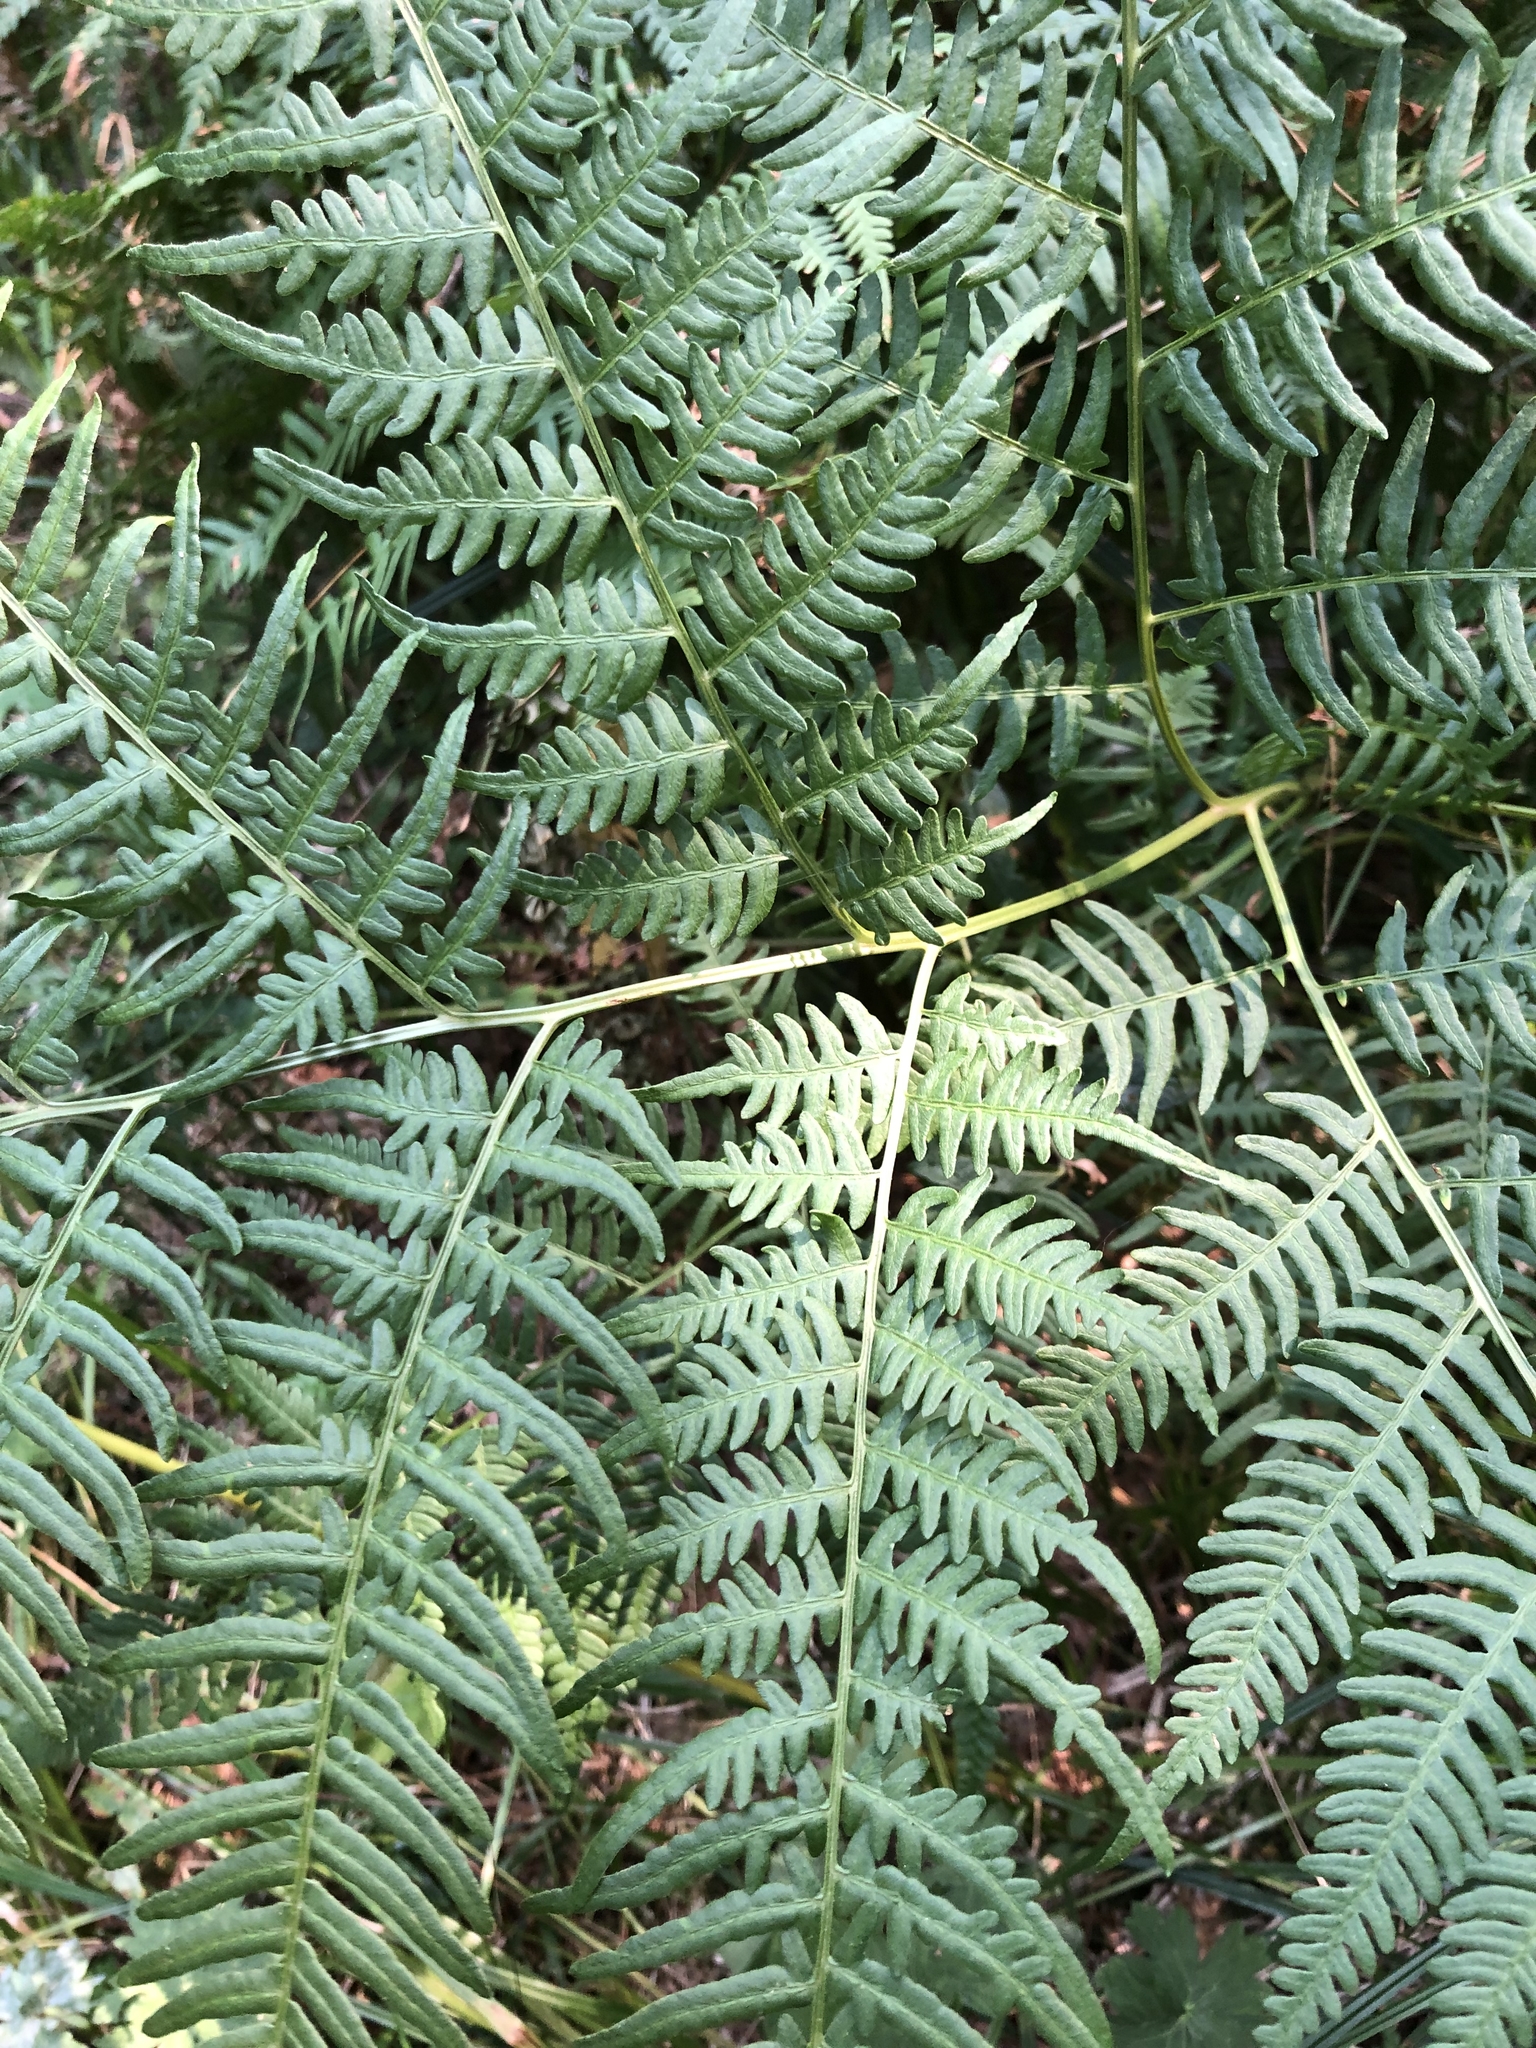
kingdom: Plantae
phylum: Tracheophyta
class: Polypodiopsida
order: Polypodiales
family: Dennstaedtiaceae
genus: Pteridium
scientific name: Pteridium aquilinum
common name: Bracken
